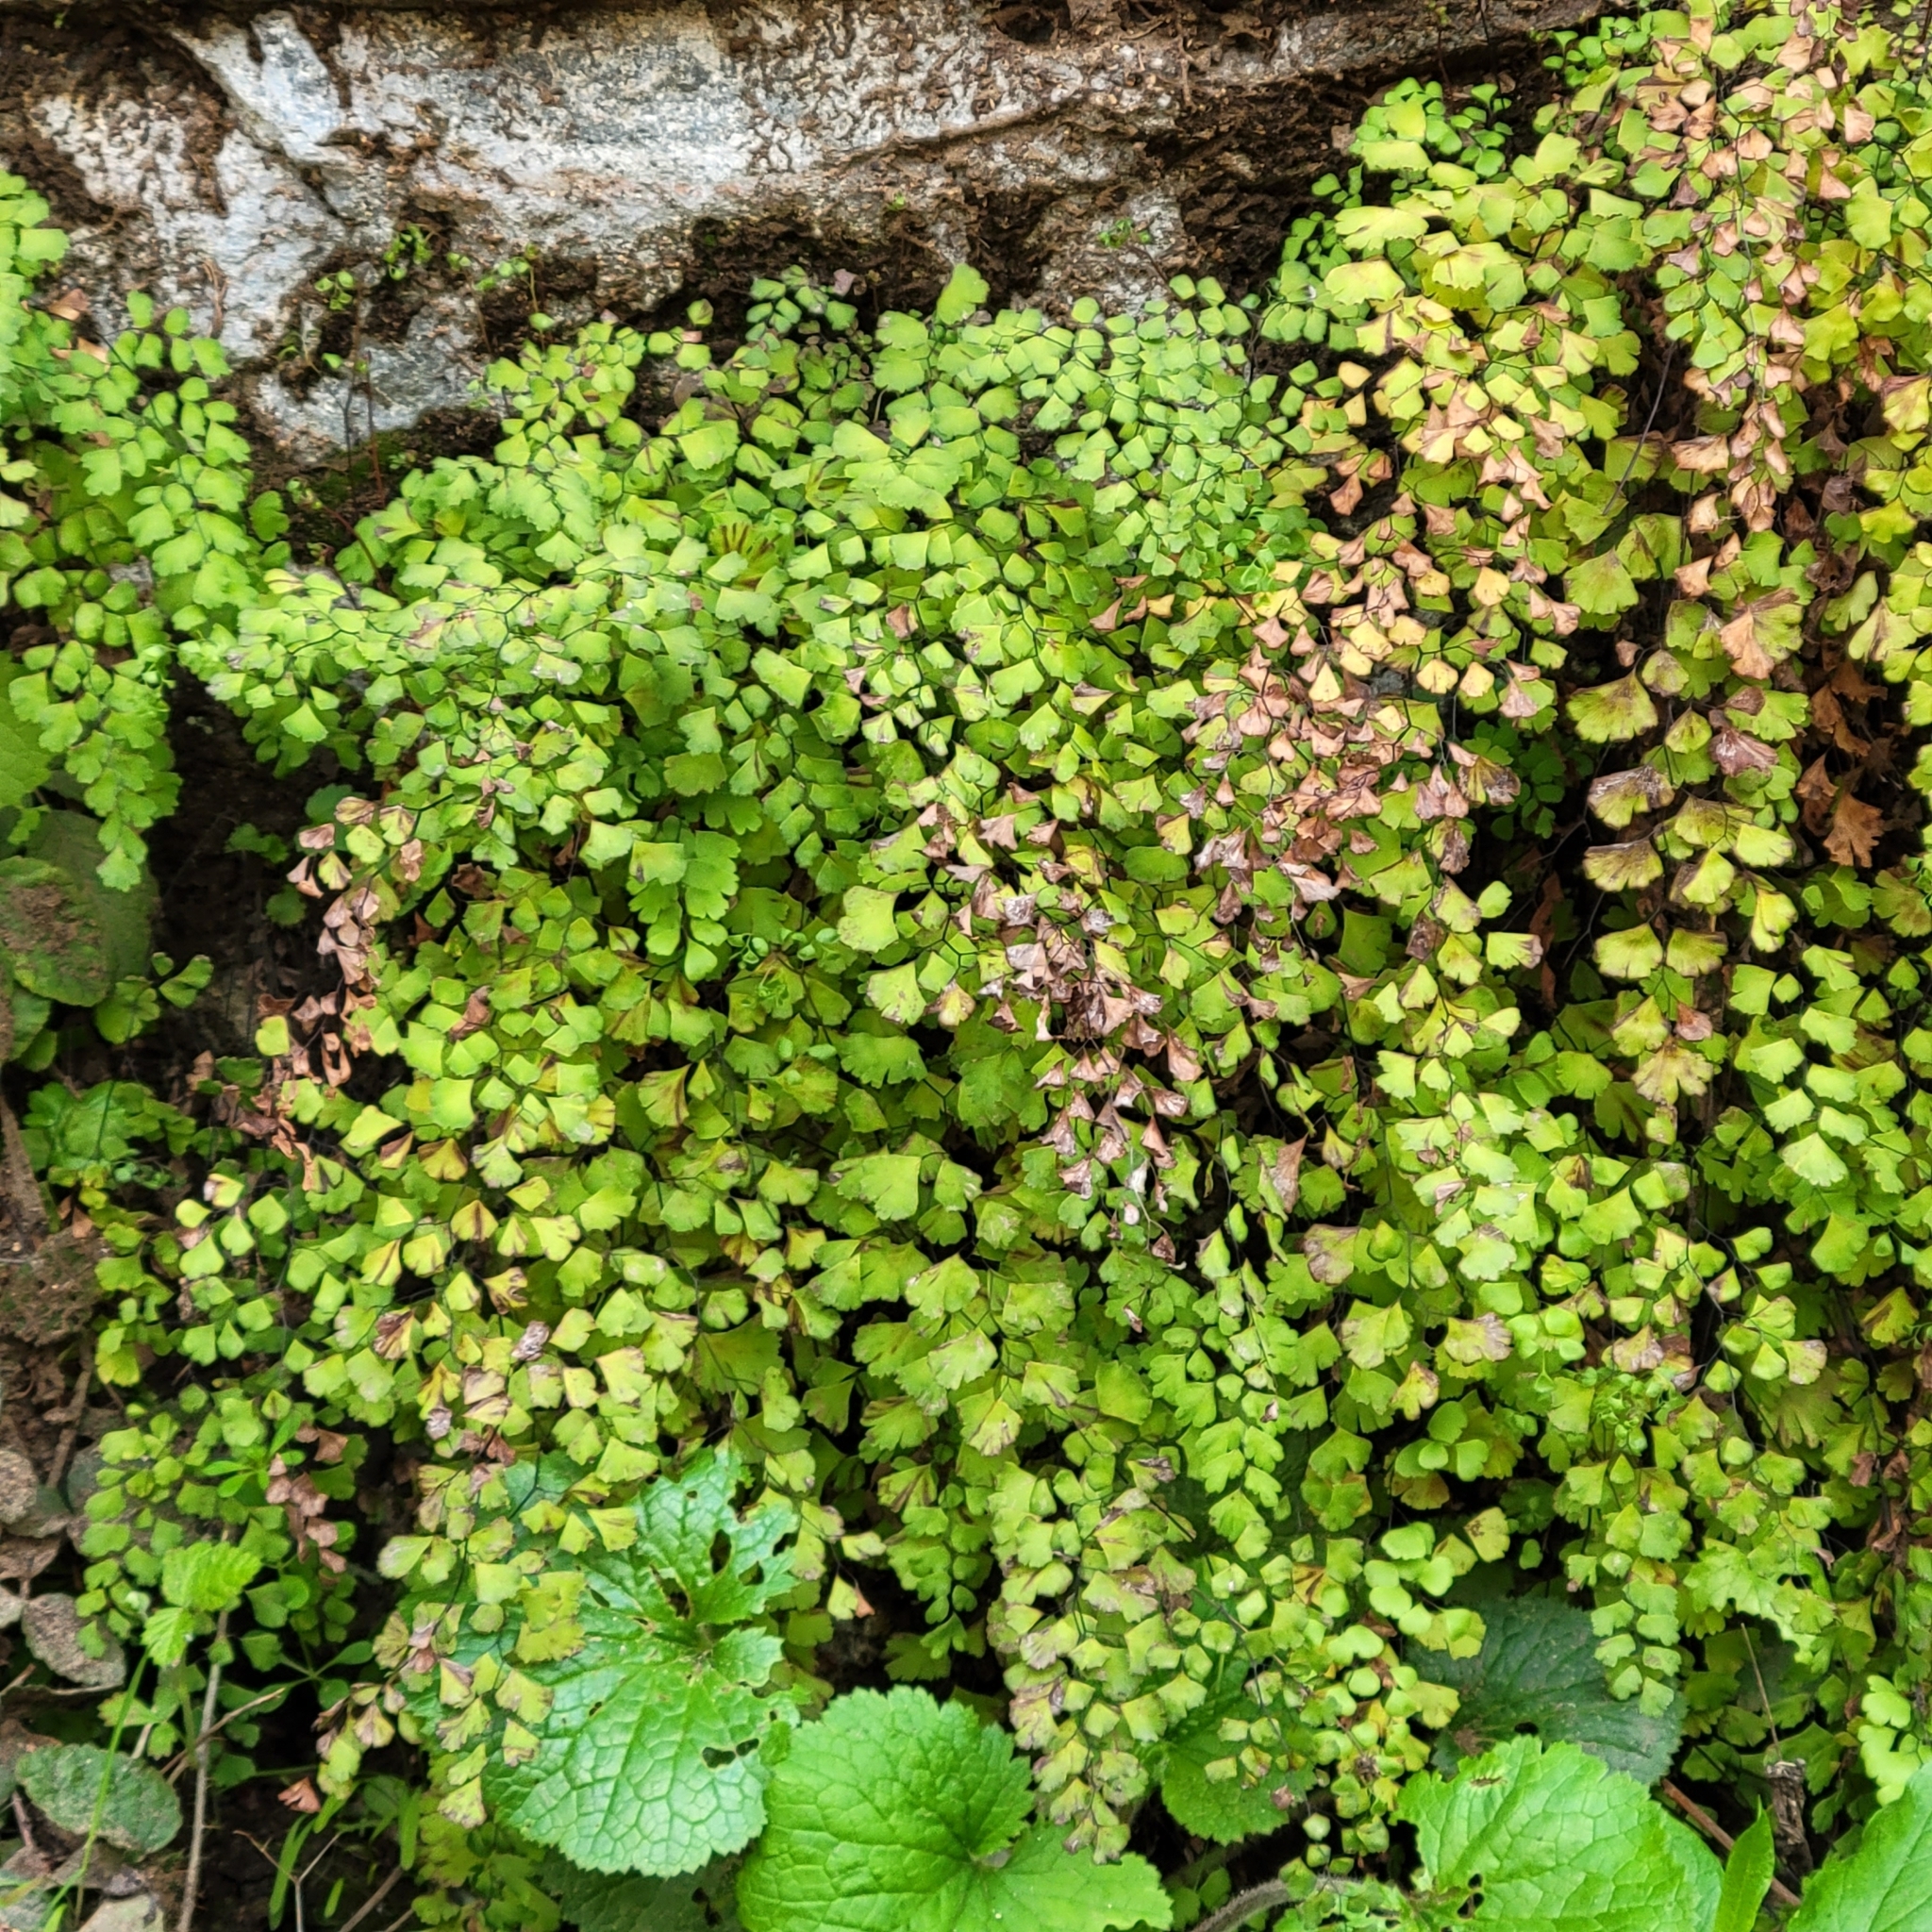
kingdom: Plantae
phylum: Tracheophyta
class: Polypodiopsida
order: Polypodiales
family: Pteridaceae
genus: Adiantum
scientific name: Adiantum capillus-veneris
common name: Maidenhair fern
